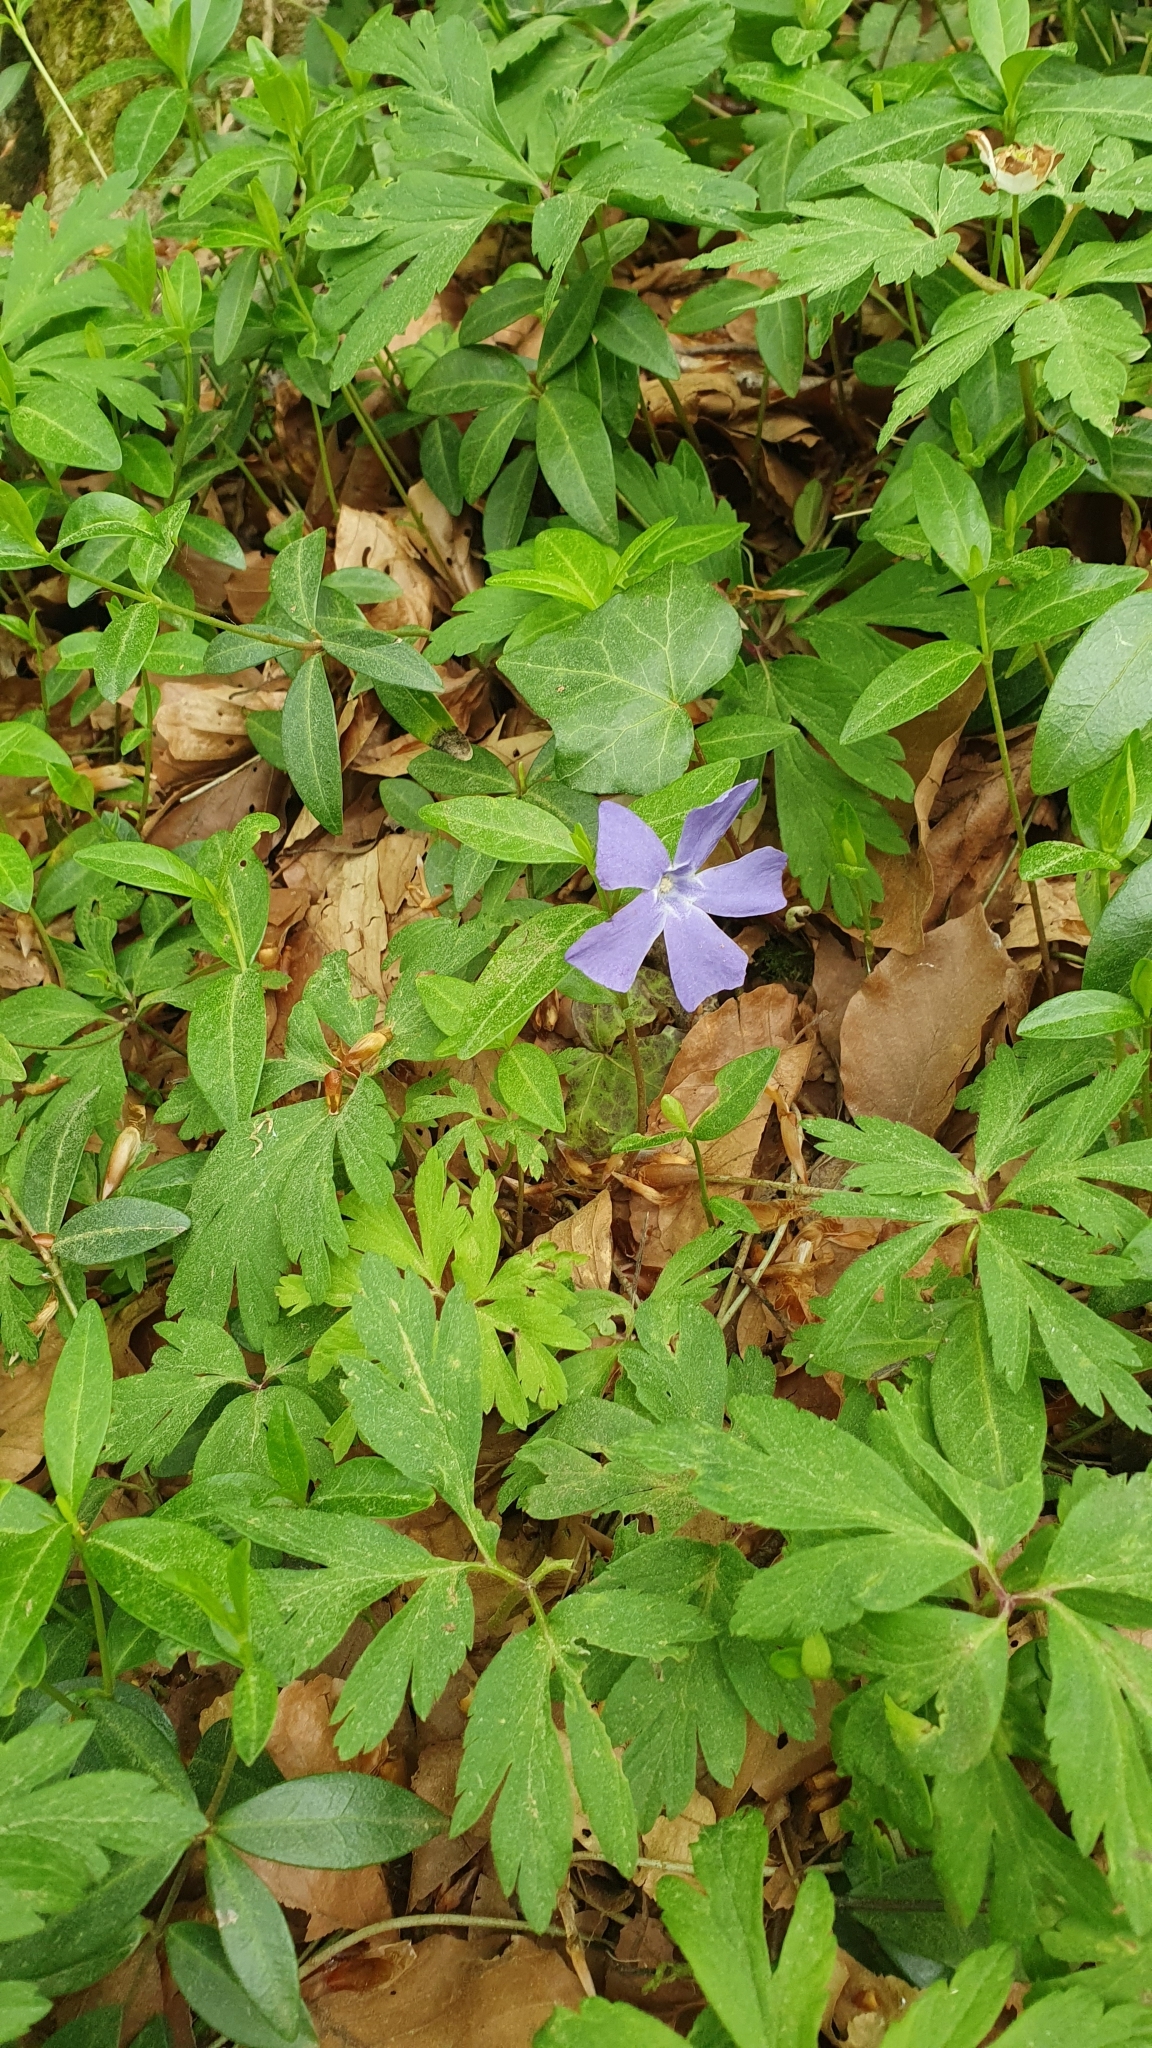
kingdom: Plantae
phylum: Tracheophyta
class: Magnoliopsida
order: Gentianales
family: Apocynaceae
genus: Vinca
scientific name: Vinca minor
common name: Lesser periwinkle
